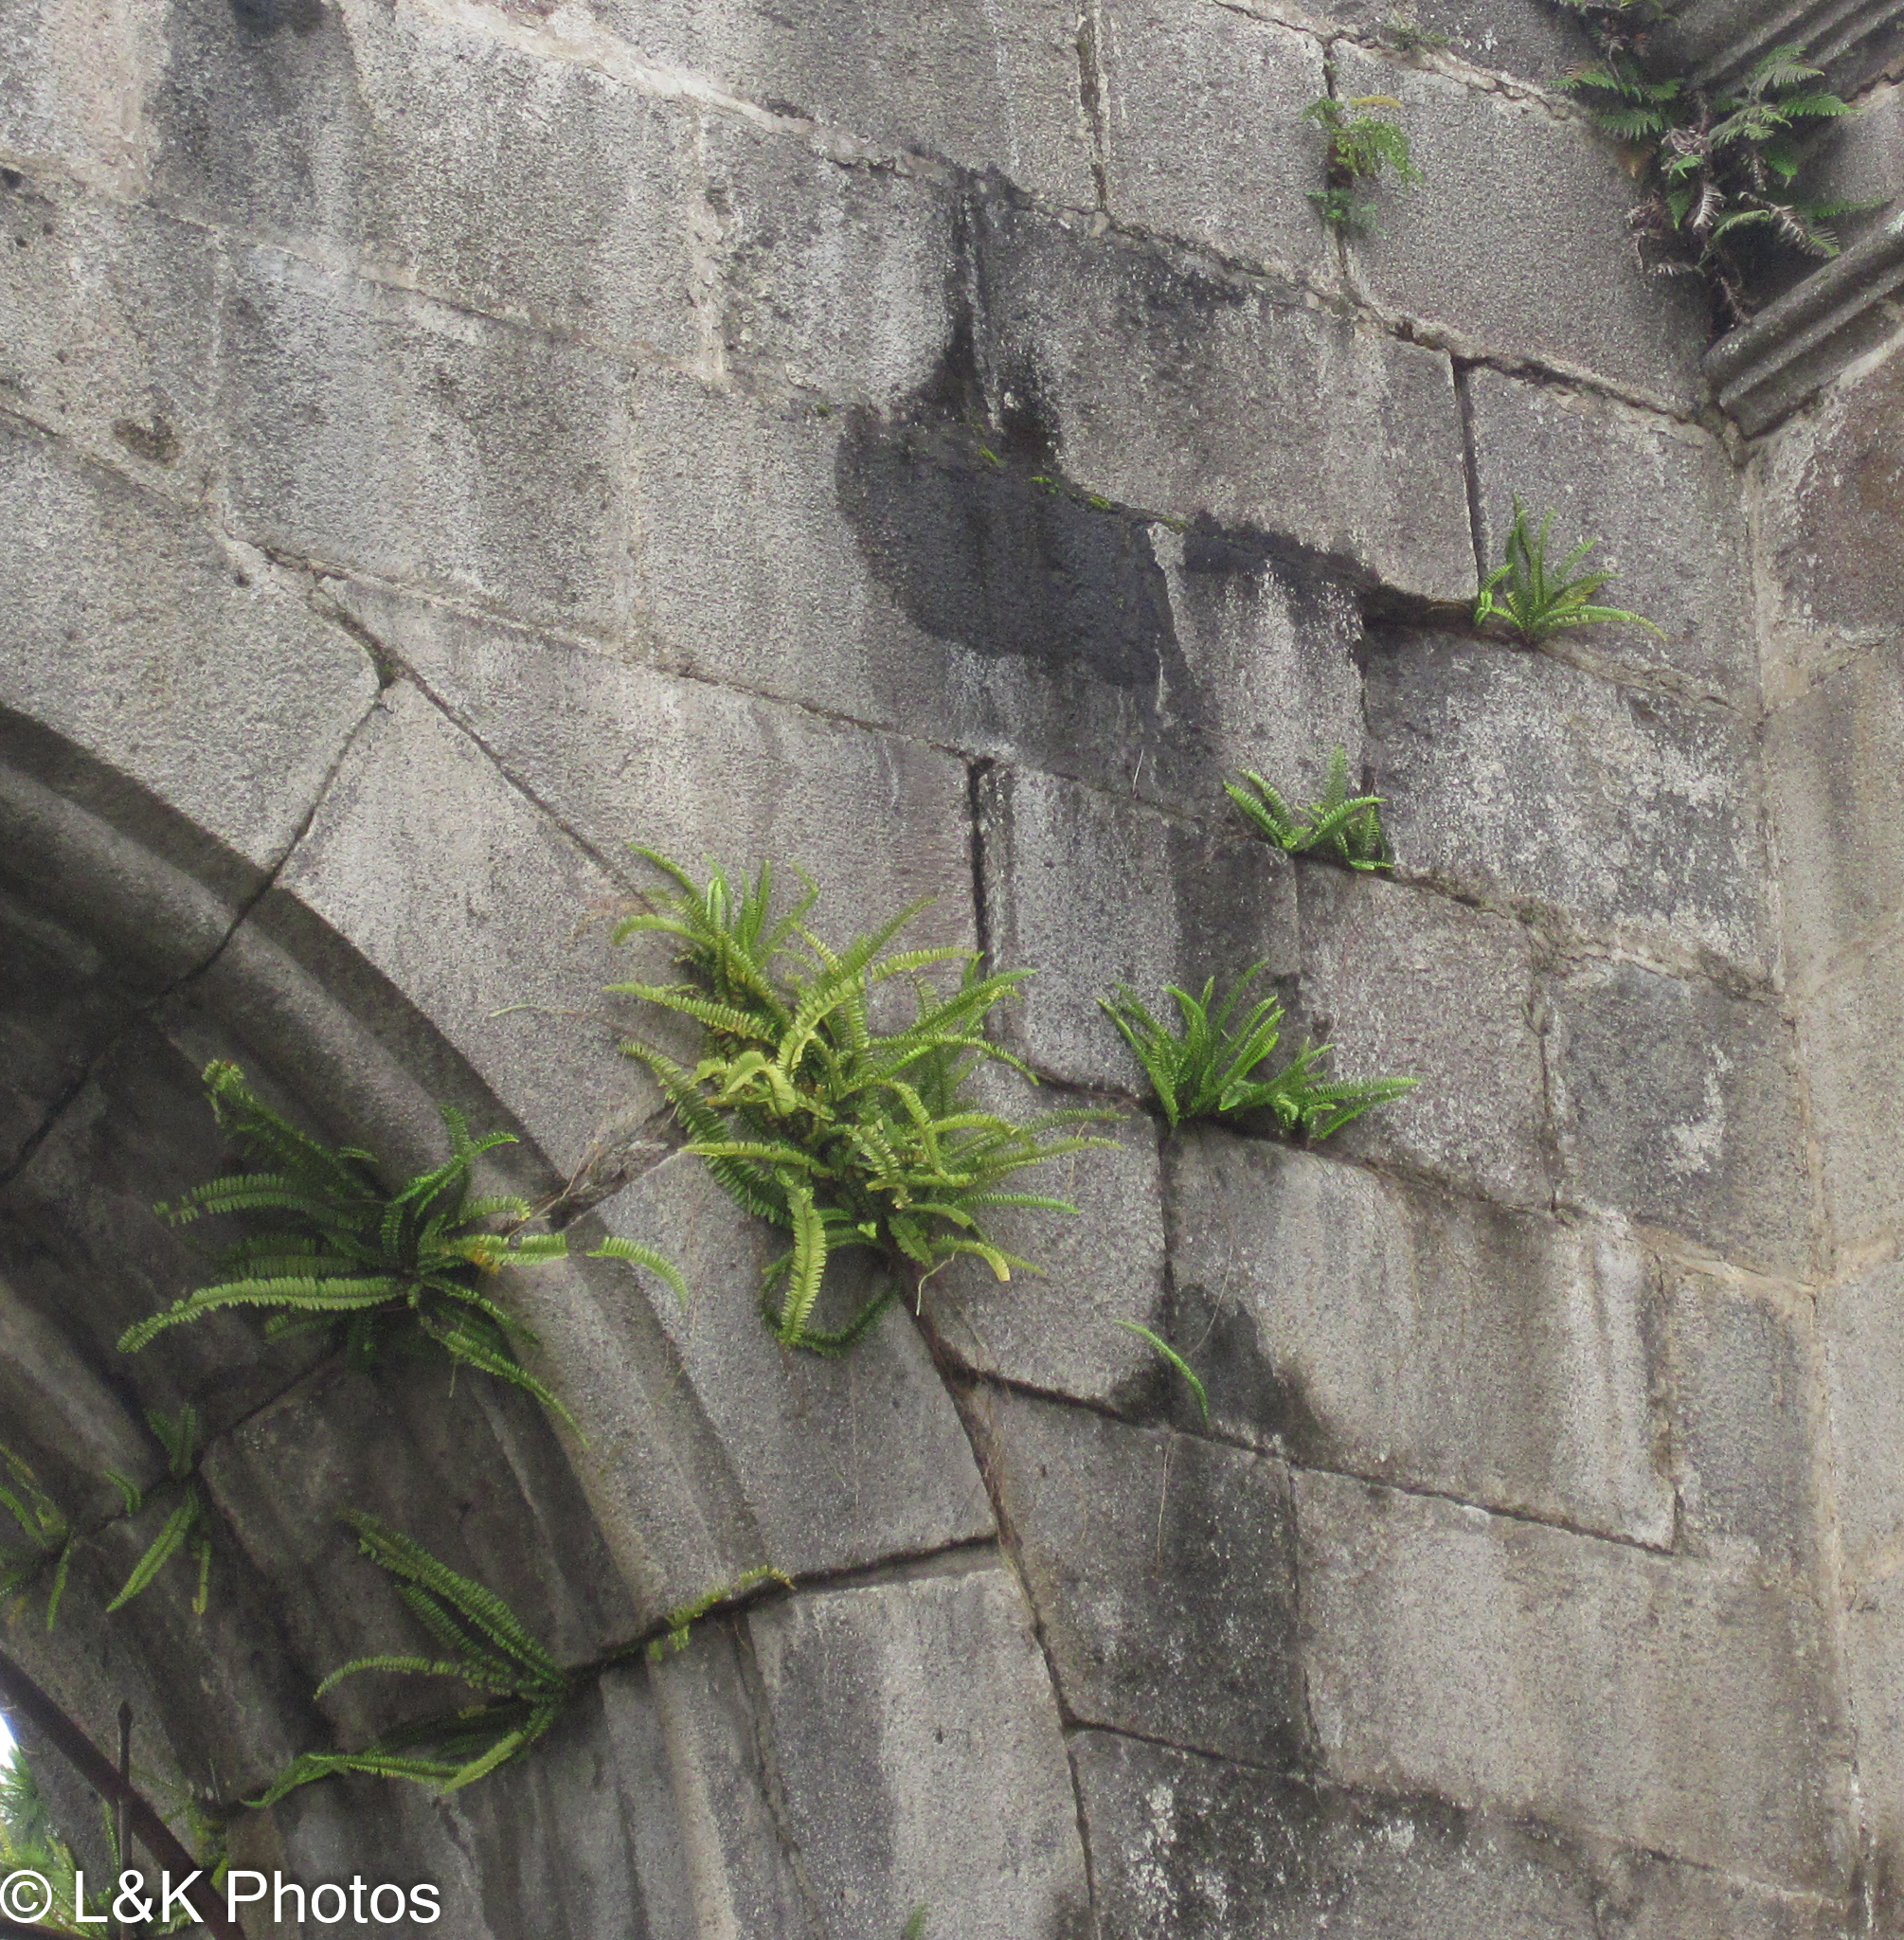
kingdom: Plantae
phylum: Tracheophyta
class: Polypodiopsida
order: Polypodiales
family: Nephrolepidaceae
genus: Nephrolepis
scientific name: Nephrolepis cordifolia
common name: Narrow swordfern
